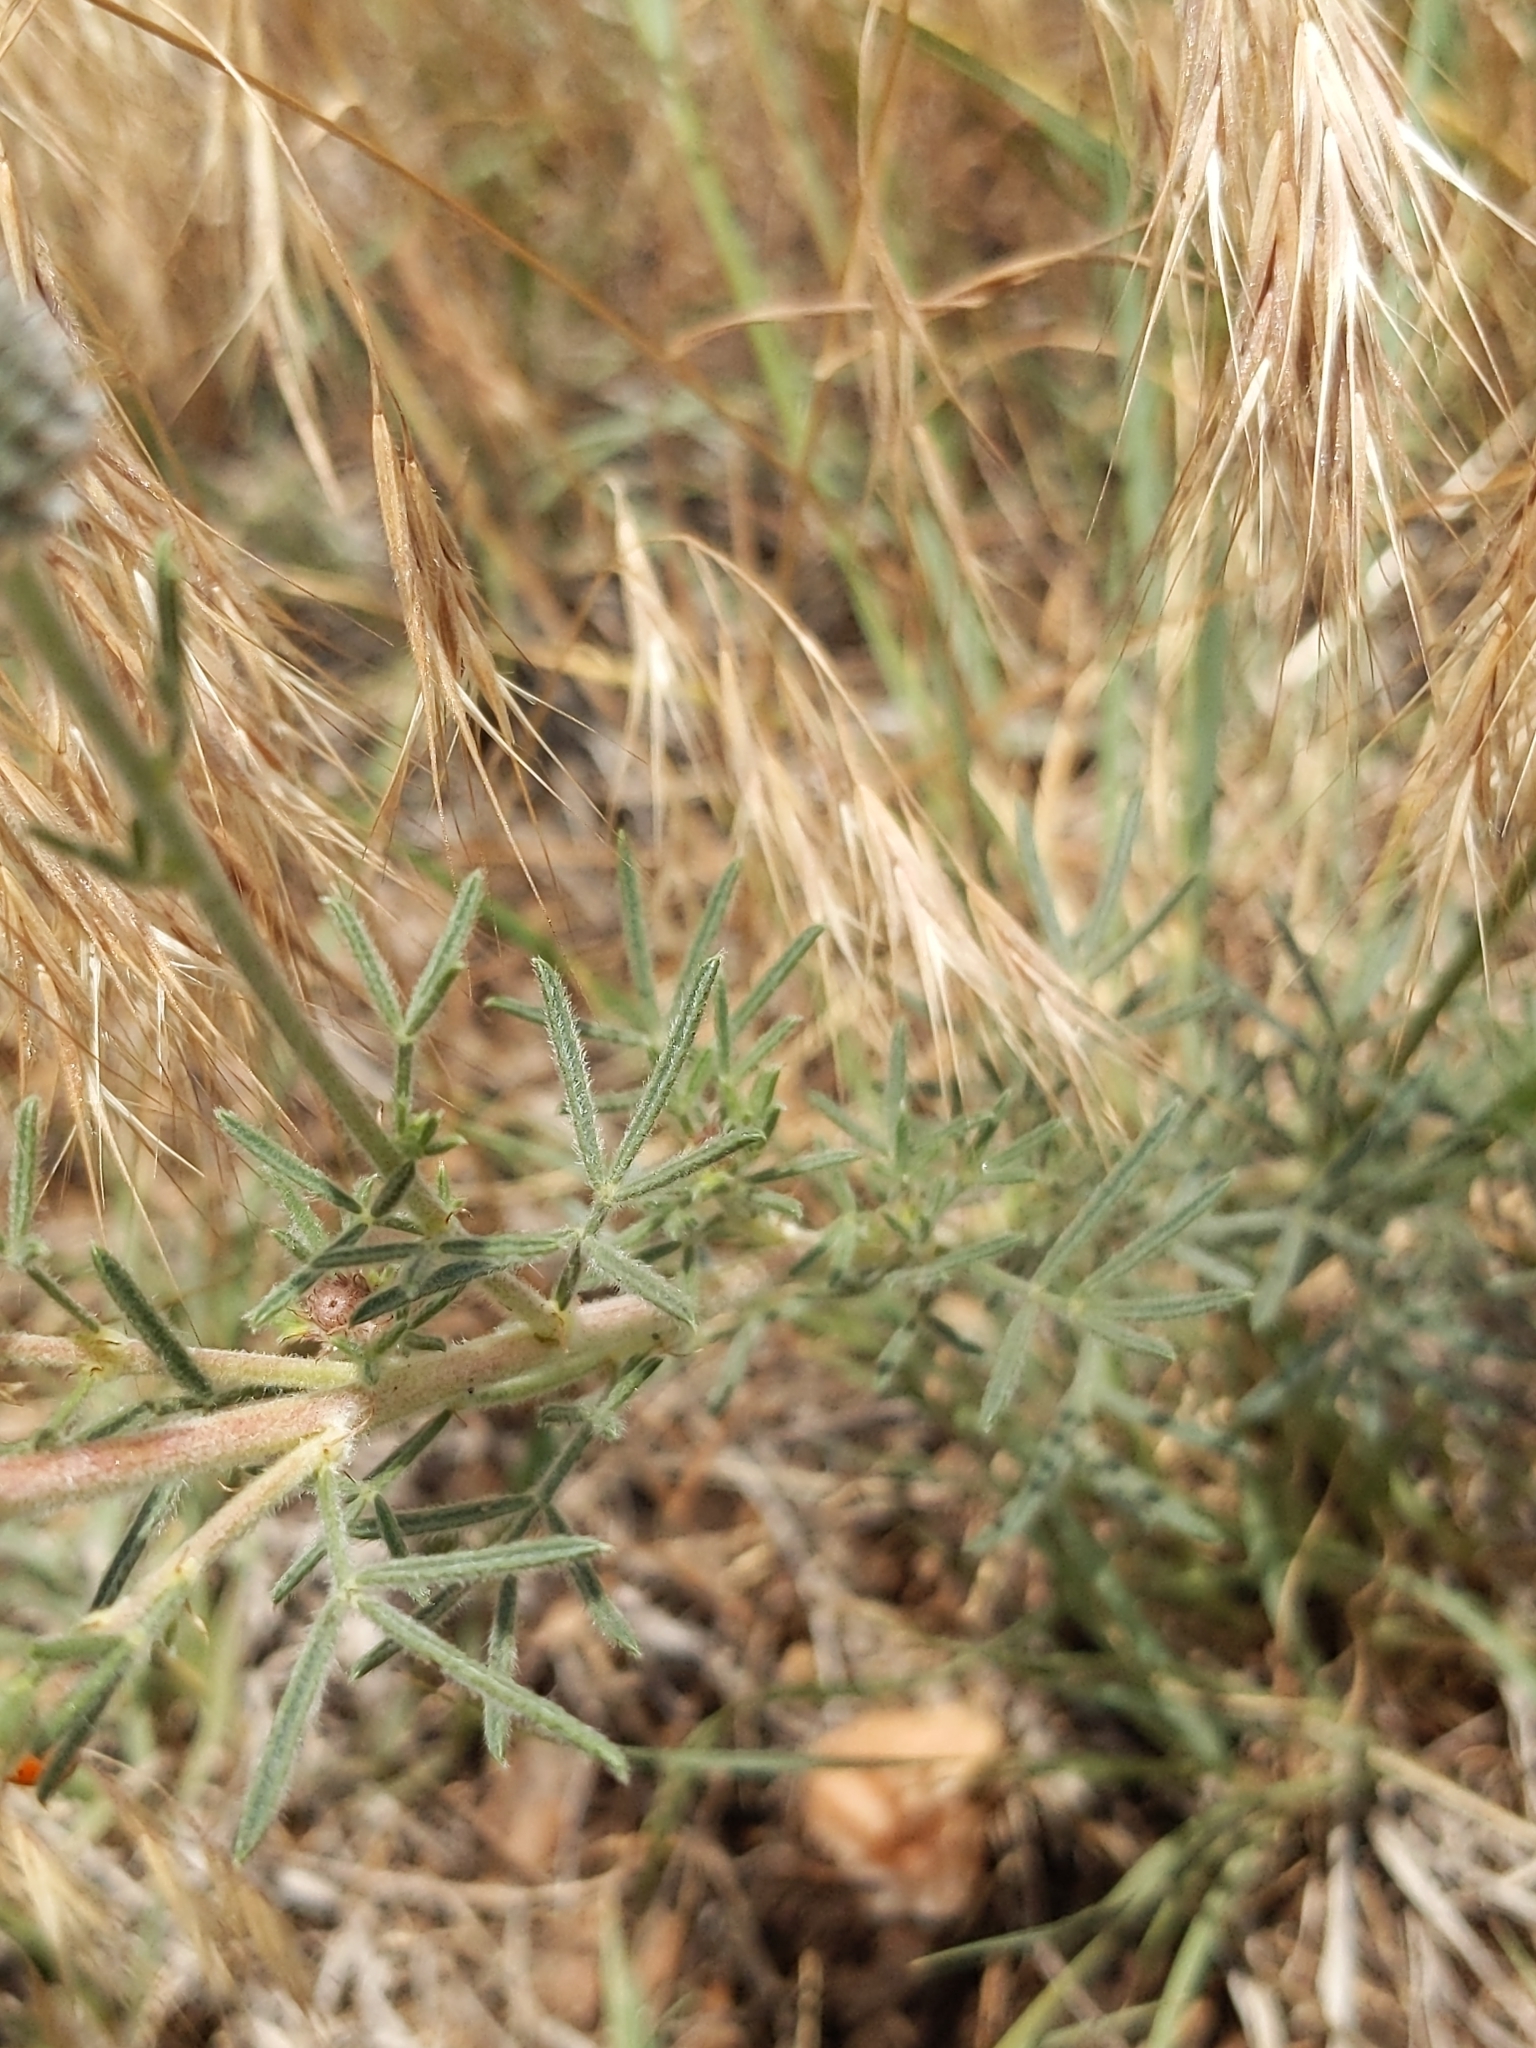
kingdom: Plantae
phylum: Tracheophyta
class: Magnoliopsida
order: Fabales
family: Fabaceae
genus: Dalea
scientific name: Dalea purpurea
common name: Purple prairie-clover
